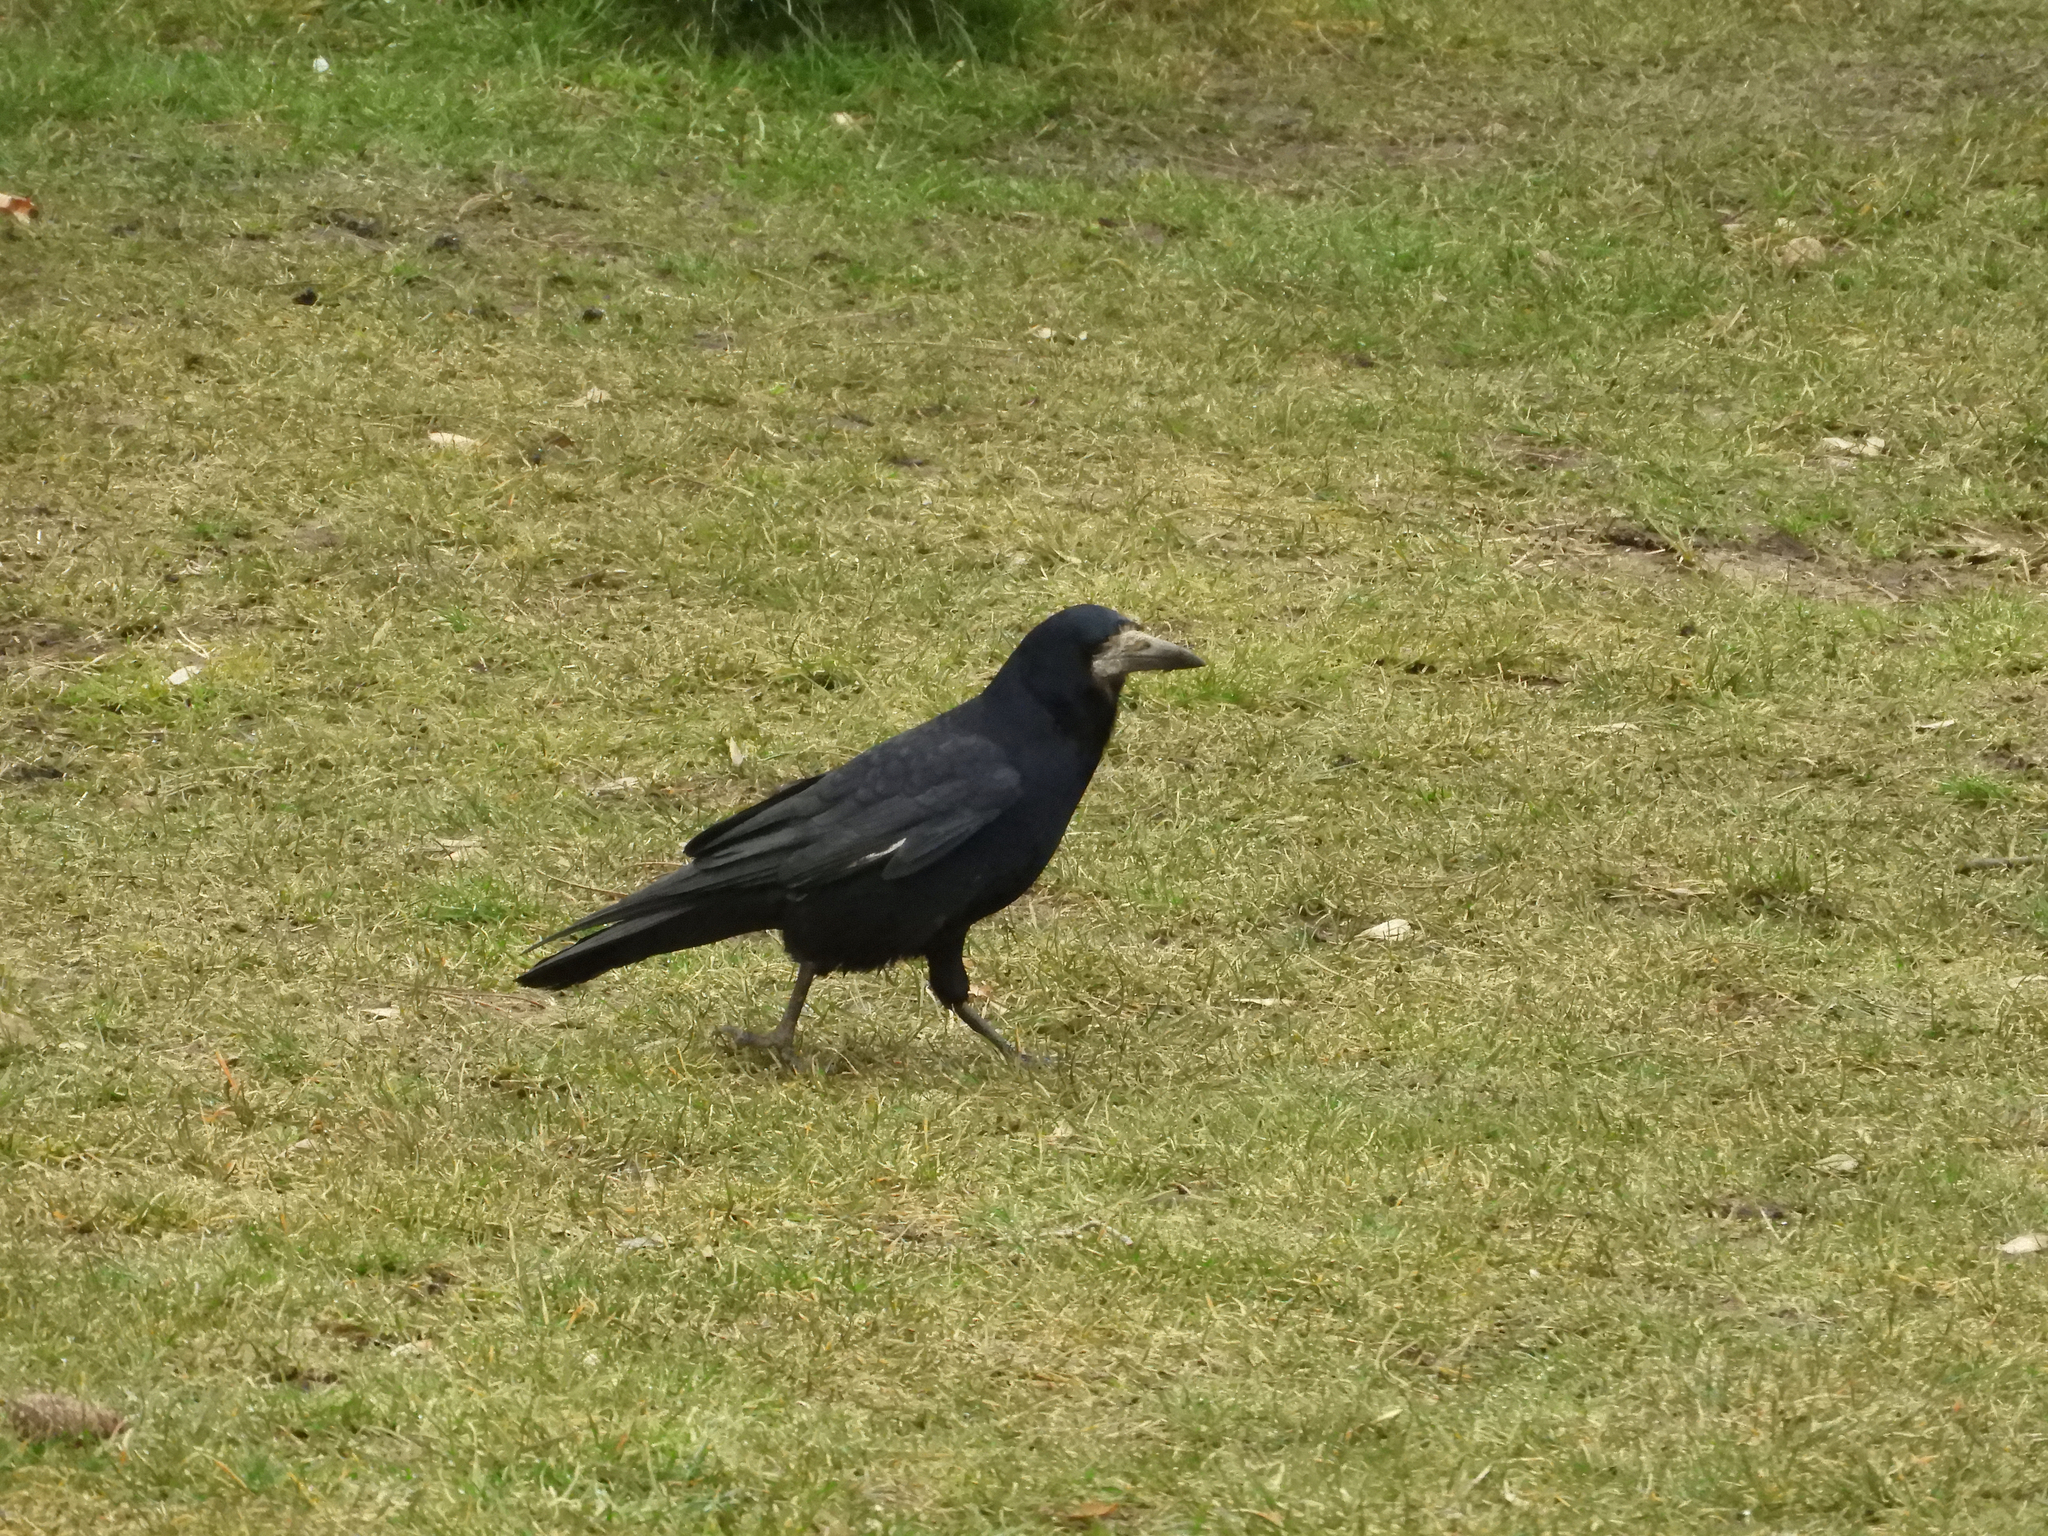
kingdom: Animalia
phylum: Chordata
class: Aves
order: Passeriformes
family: Corvidae
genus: Corvus
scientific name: Corvus frugilegus
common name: Rook
